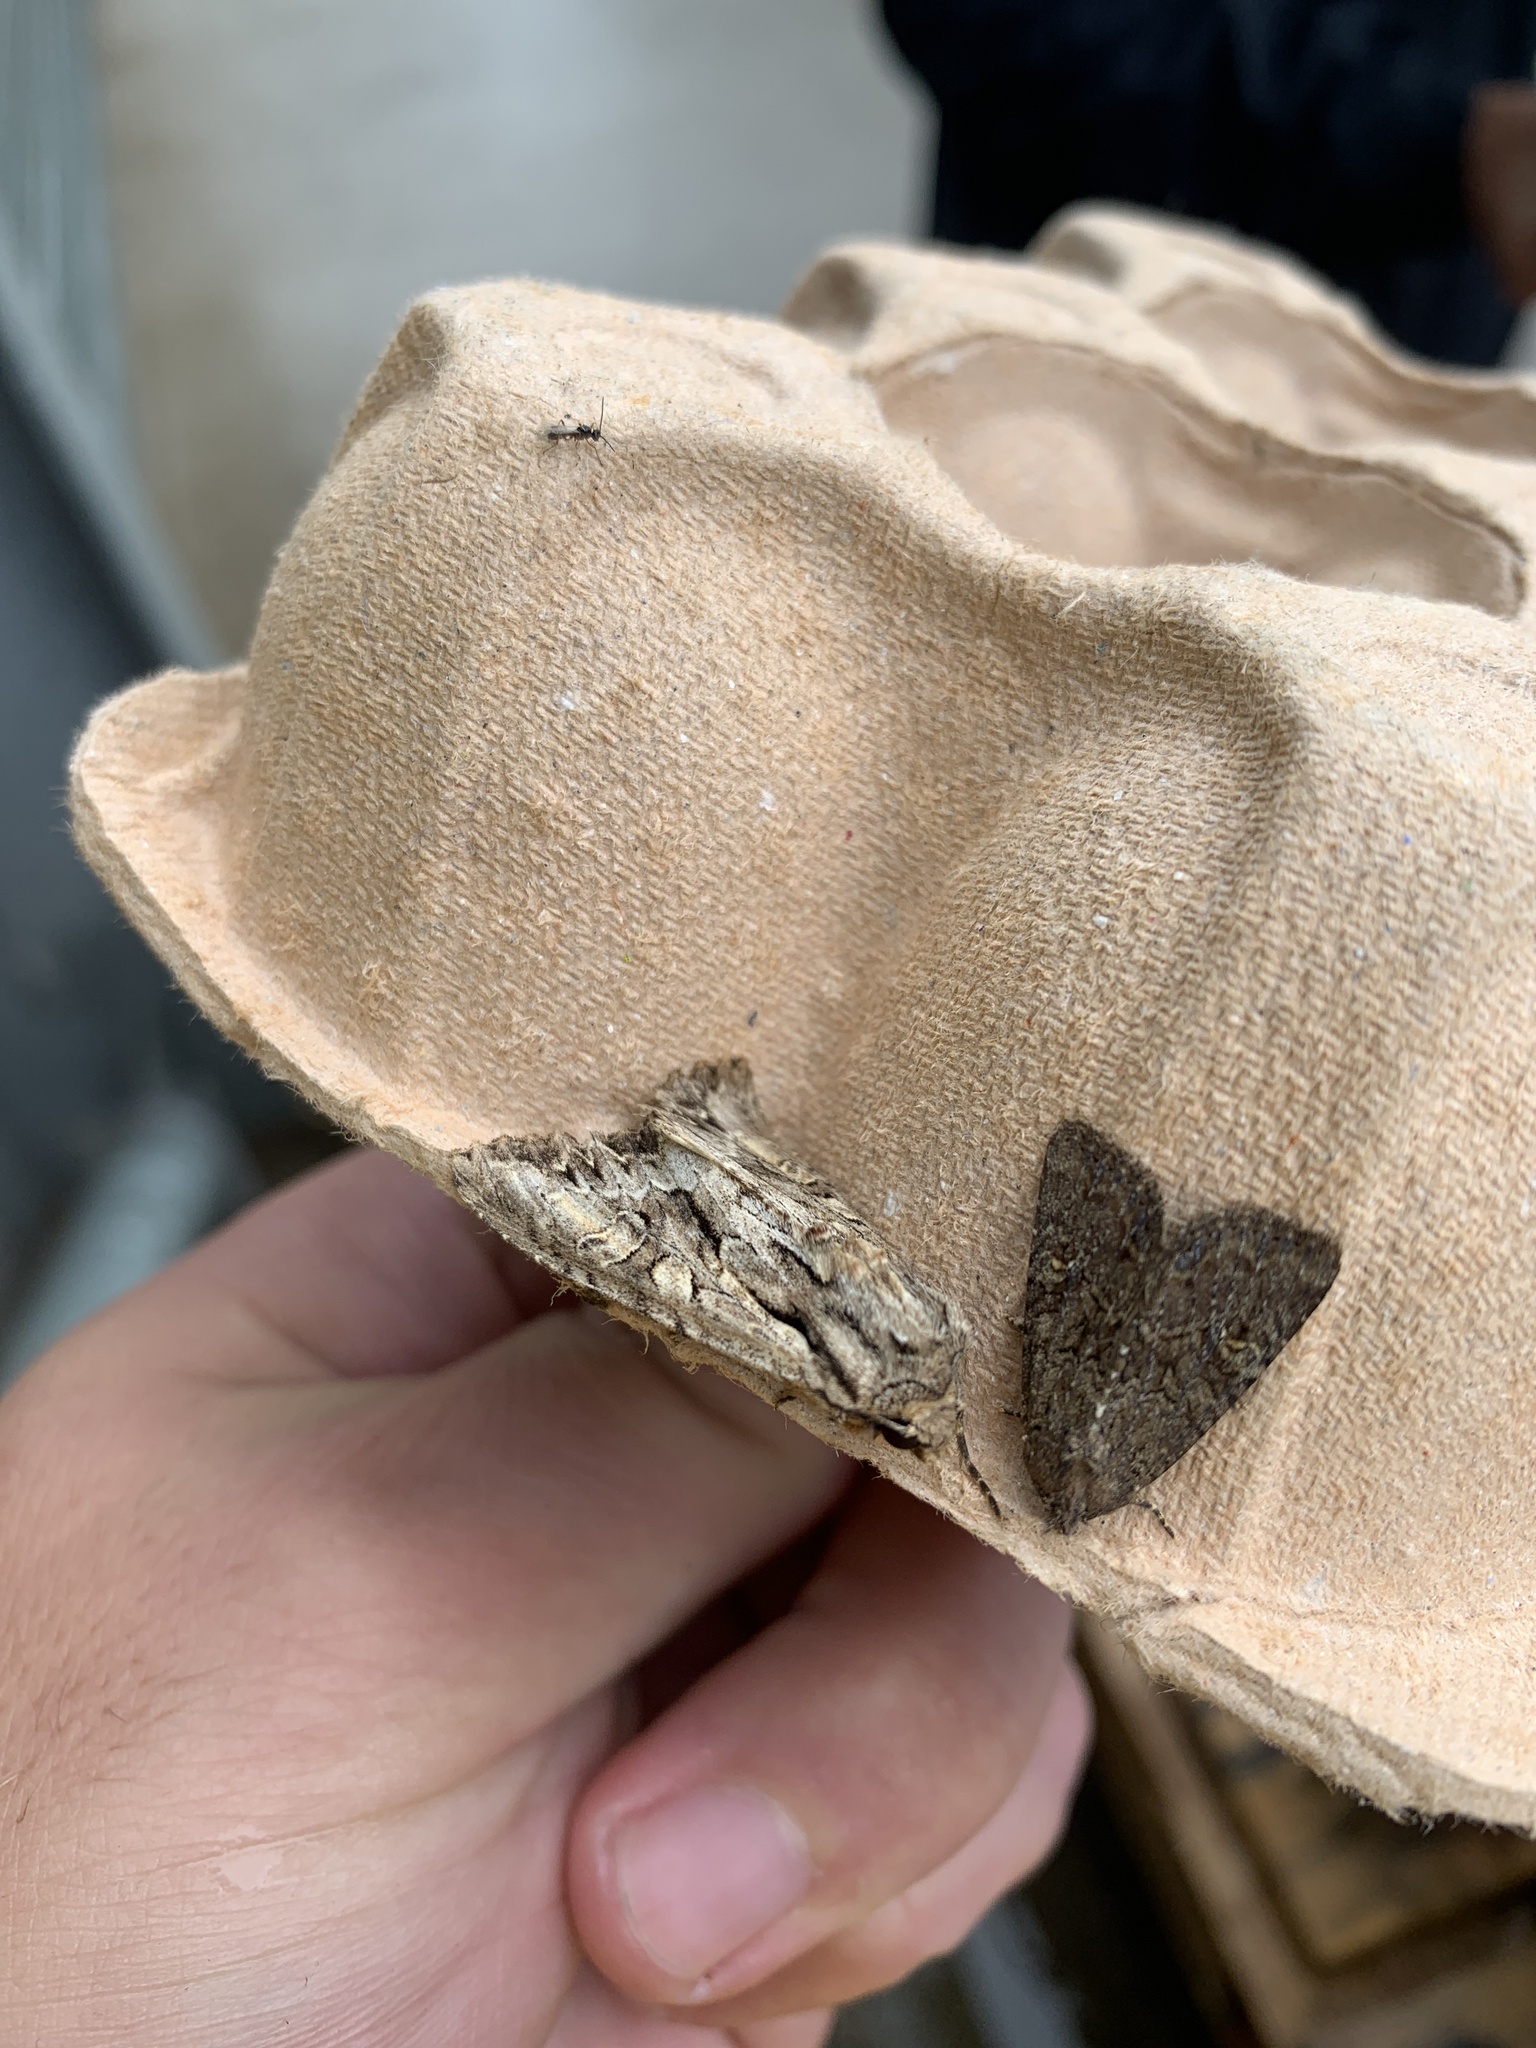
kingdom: Animalia
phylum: Arthropoda
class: Insecta
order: Lepidoptera
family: Noctuidae
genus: Apamea
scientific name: Apamea monoglypha
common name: Dark arches
